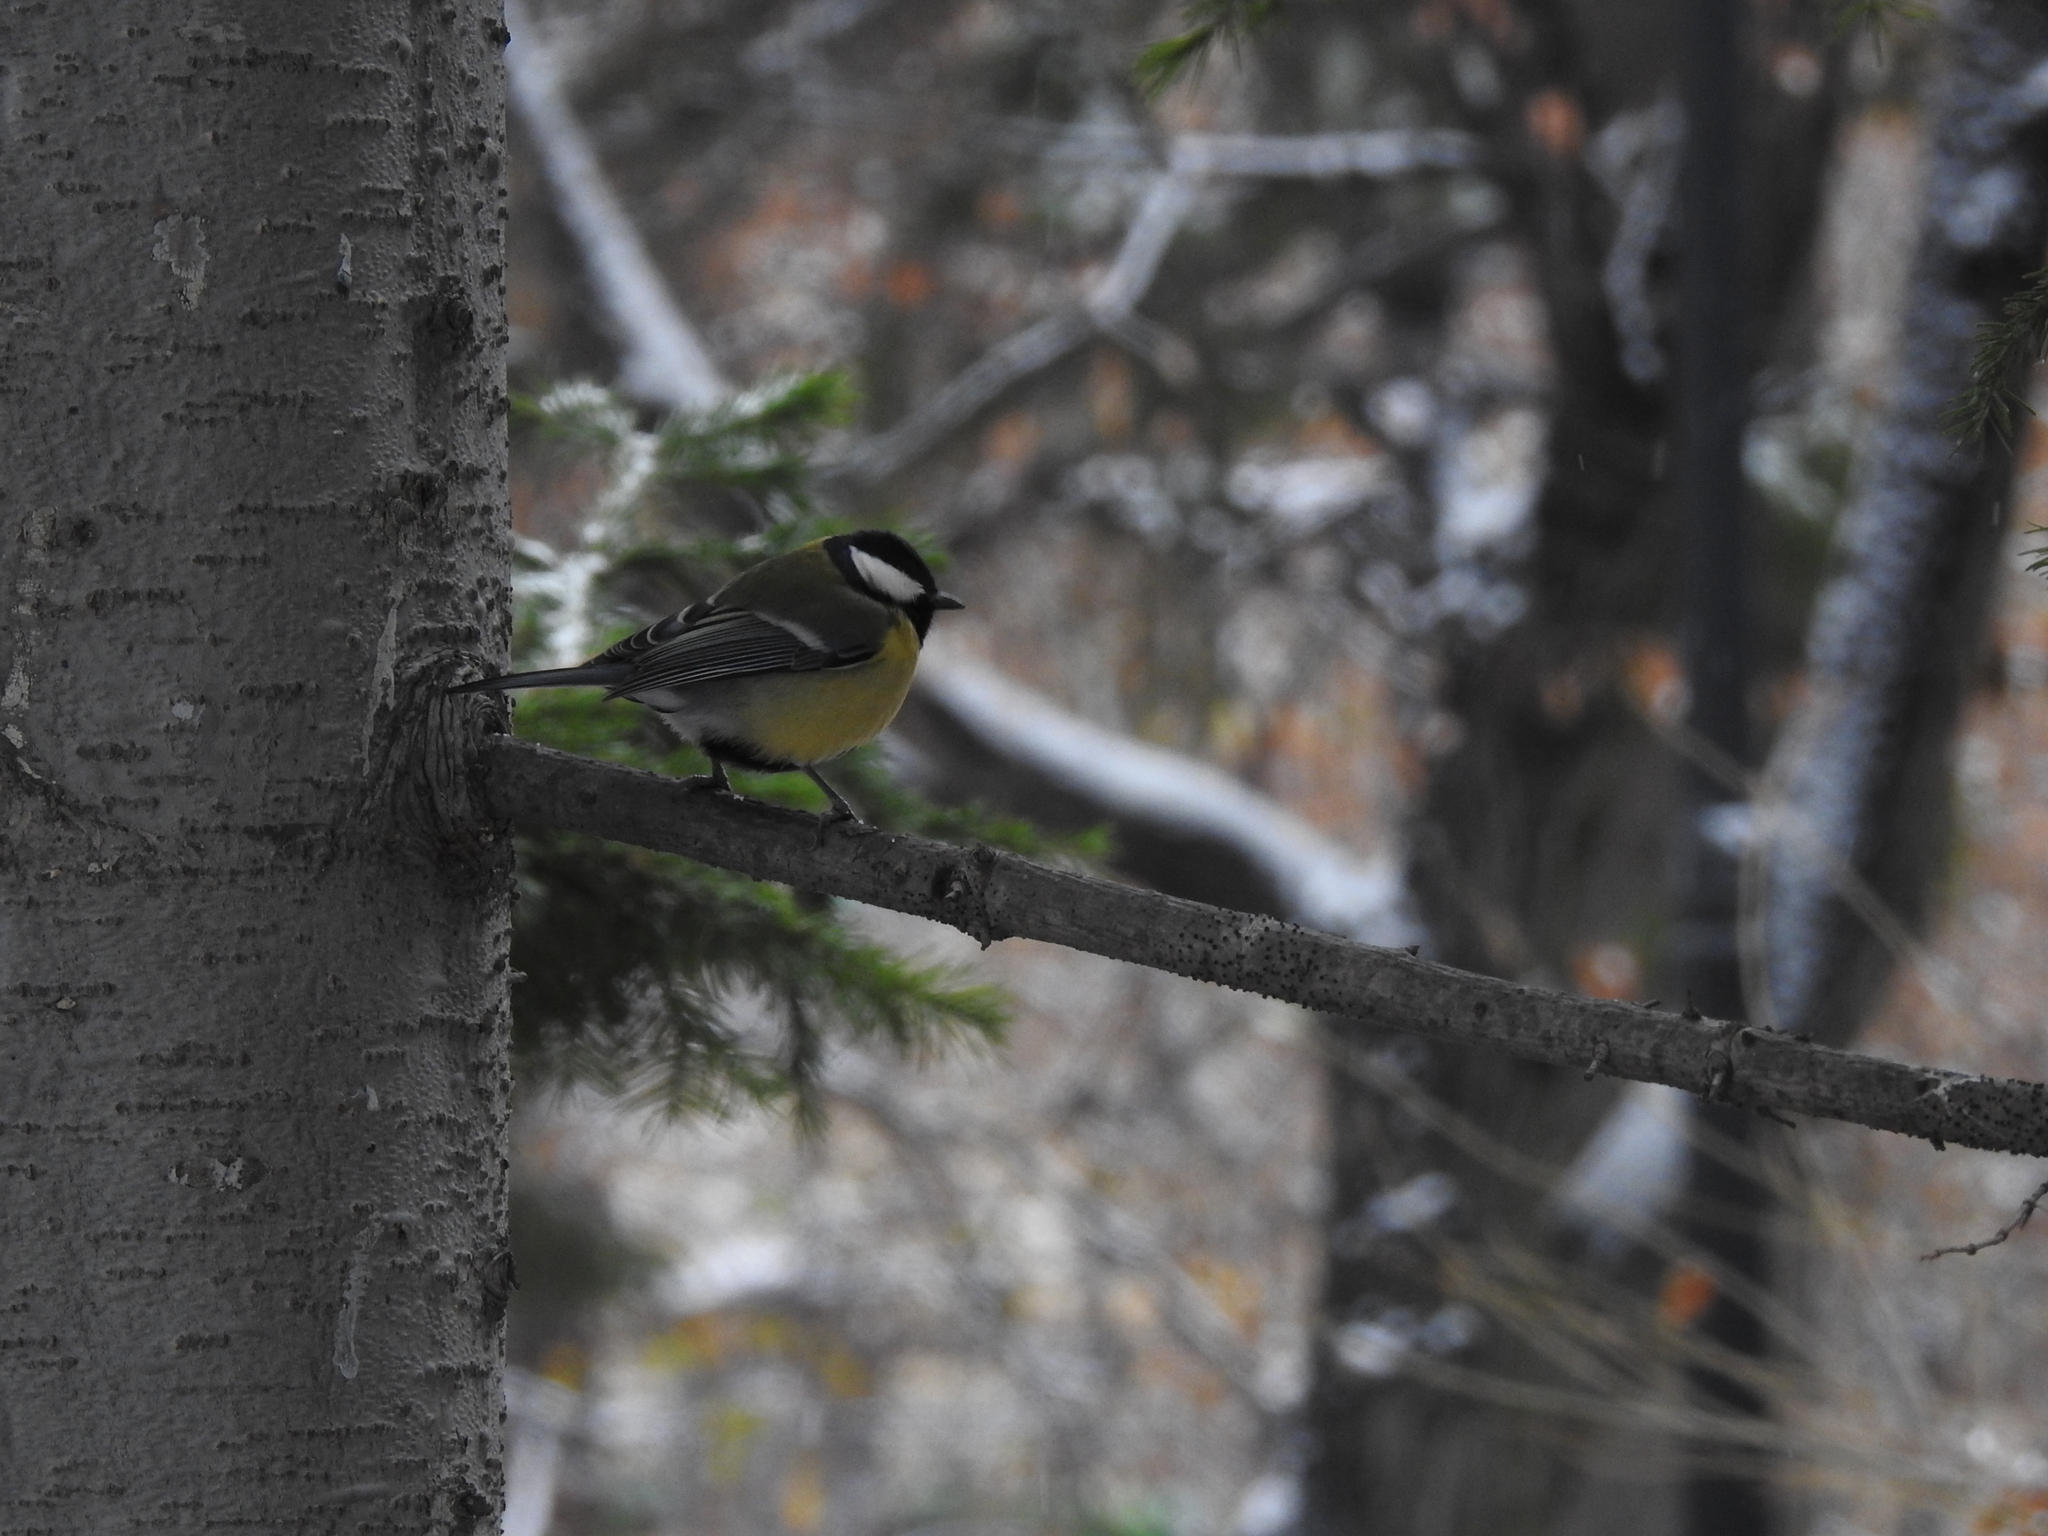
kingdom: Animalia
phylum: Chordata
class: Aves
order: Passeriformes
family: Paridae
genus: Parus
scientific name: Parus major
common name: Great tit
